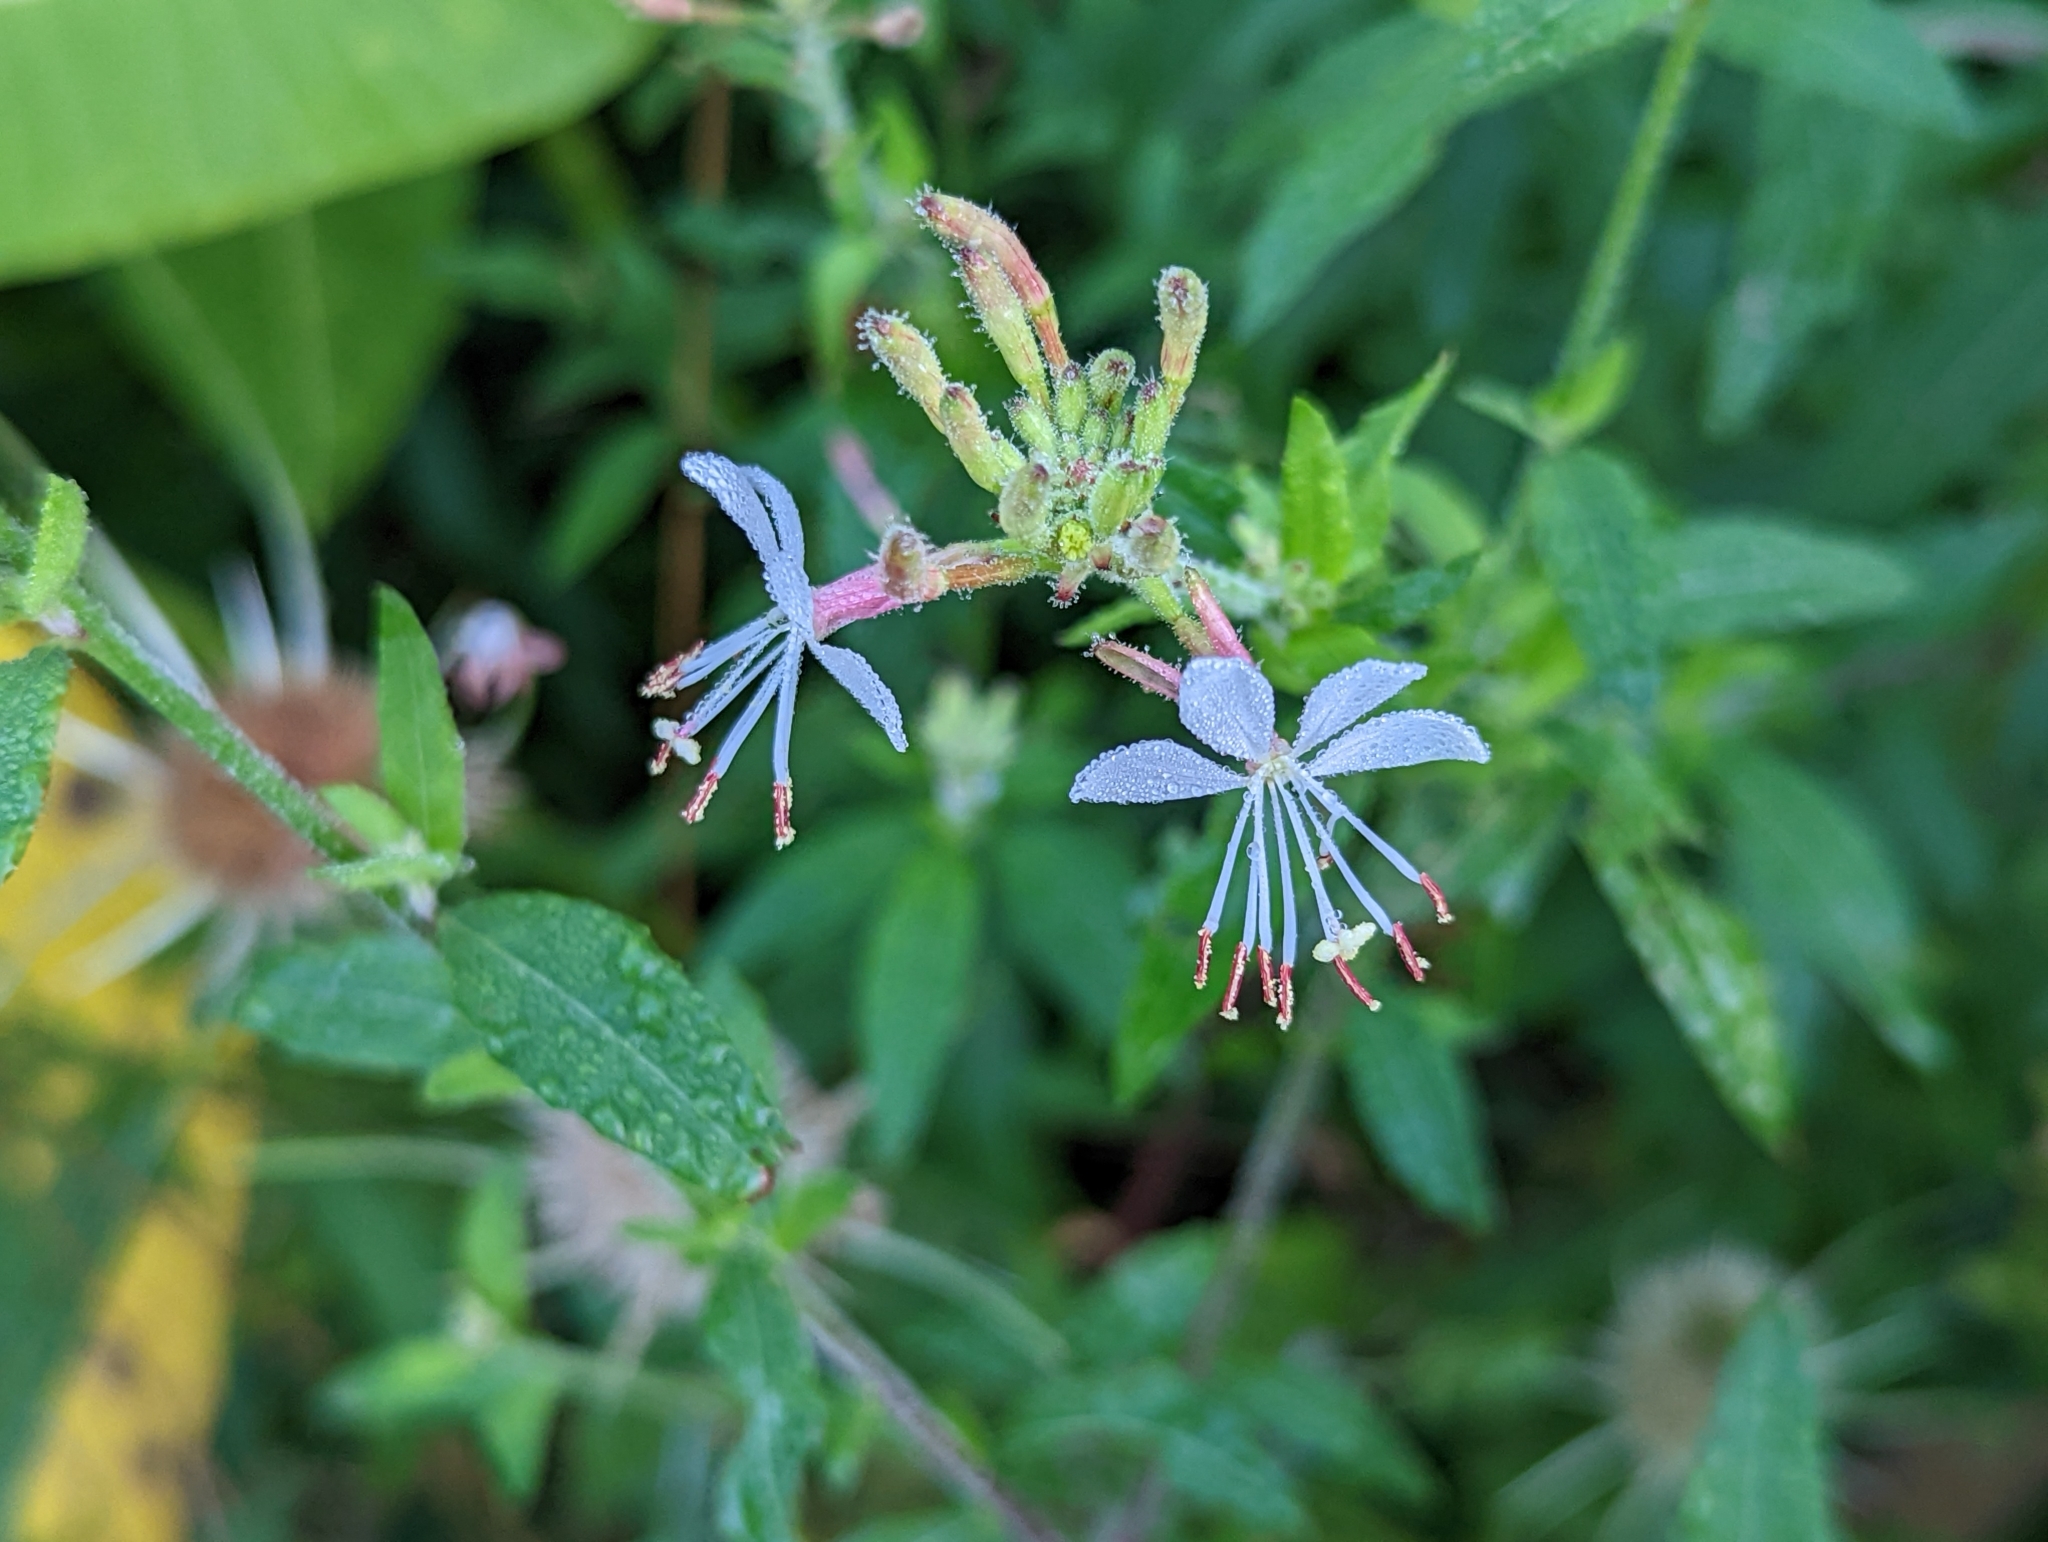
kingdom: Plantae
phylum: Tracheophyta
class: Magnoliopsida
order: Myrtales
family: Onagraceae
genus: Oenothera
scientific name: Oenothera gaura
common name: Biennial beeblossom
